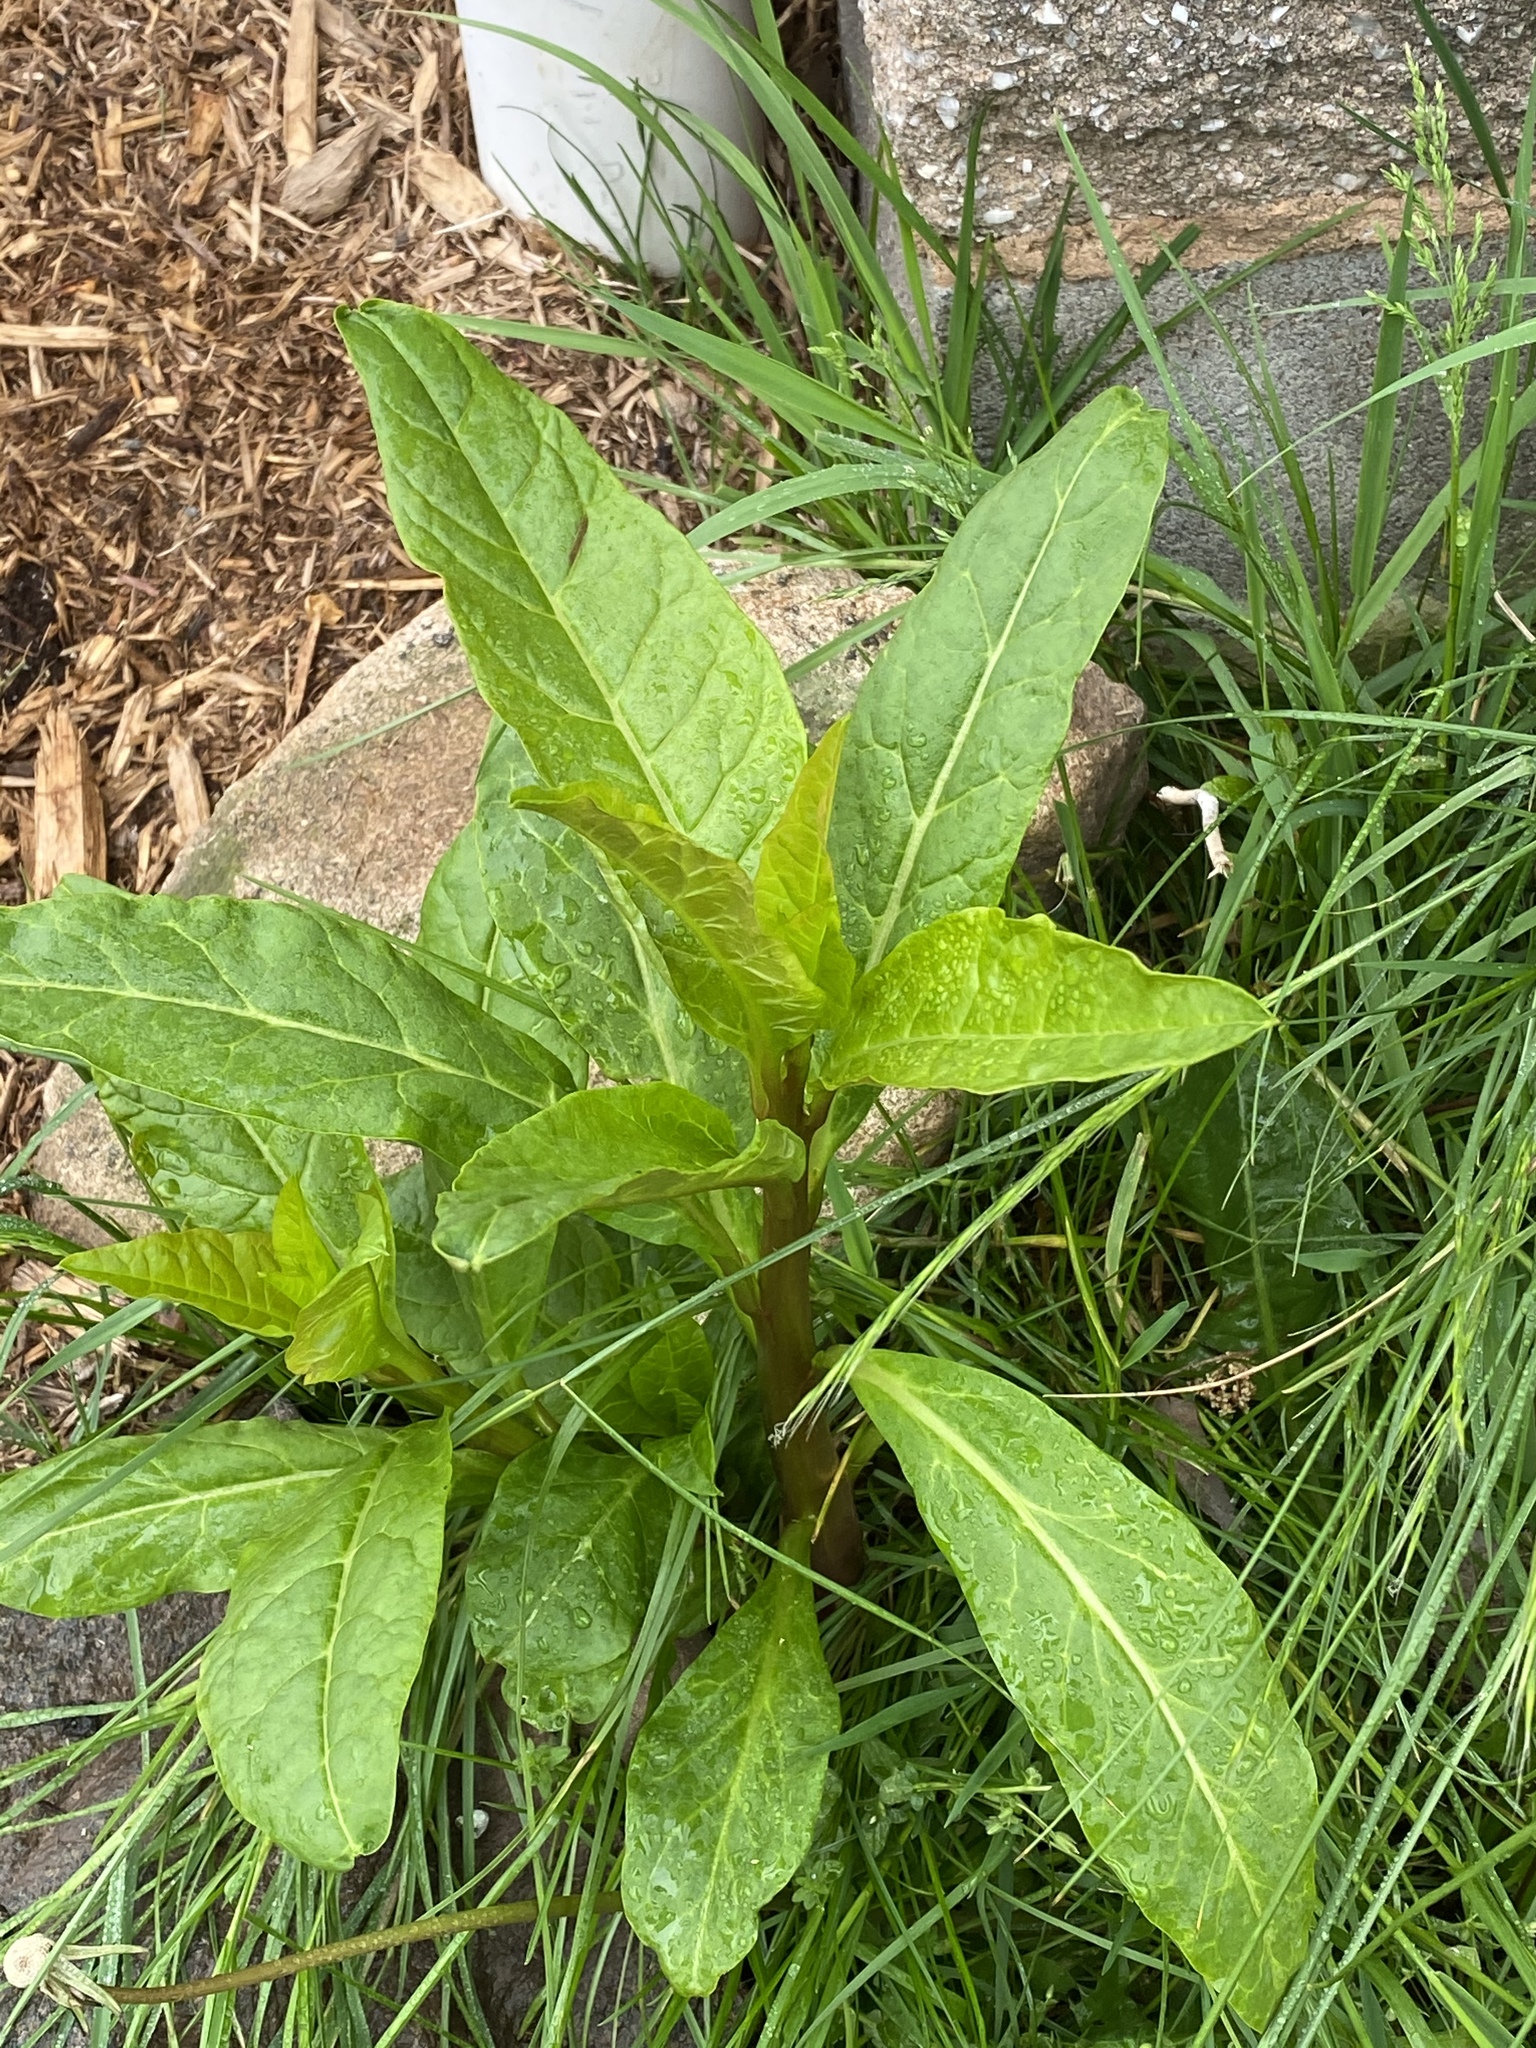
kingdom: Plantae
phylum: Tracheophyta
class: Magnoliopsida
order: Caryophyllales
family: Phytolaccaceae
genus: Phytolacca
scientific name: Phytolacca americana
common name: American pokeweed
